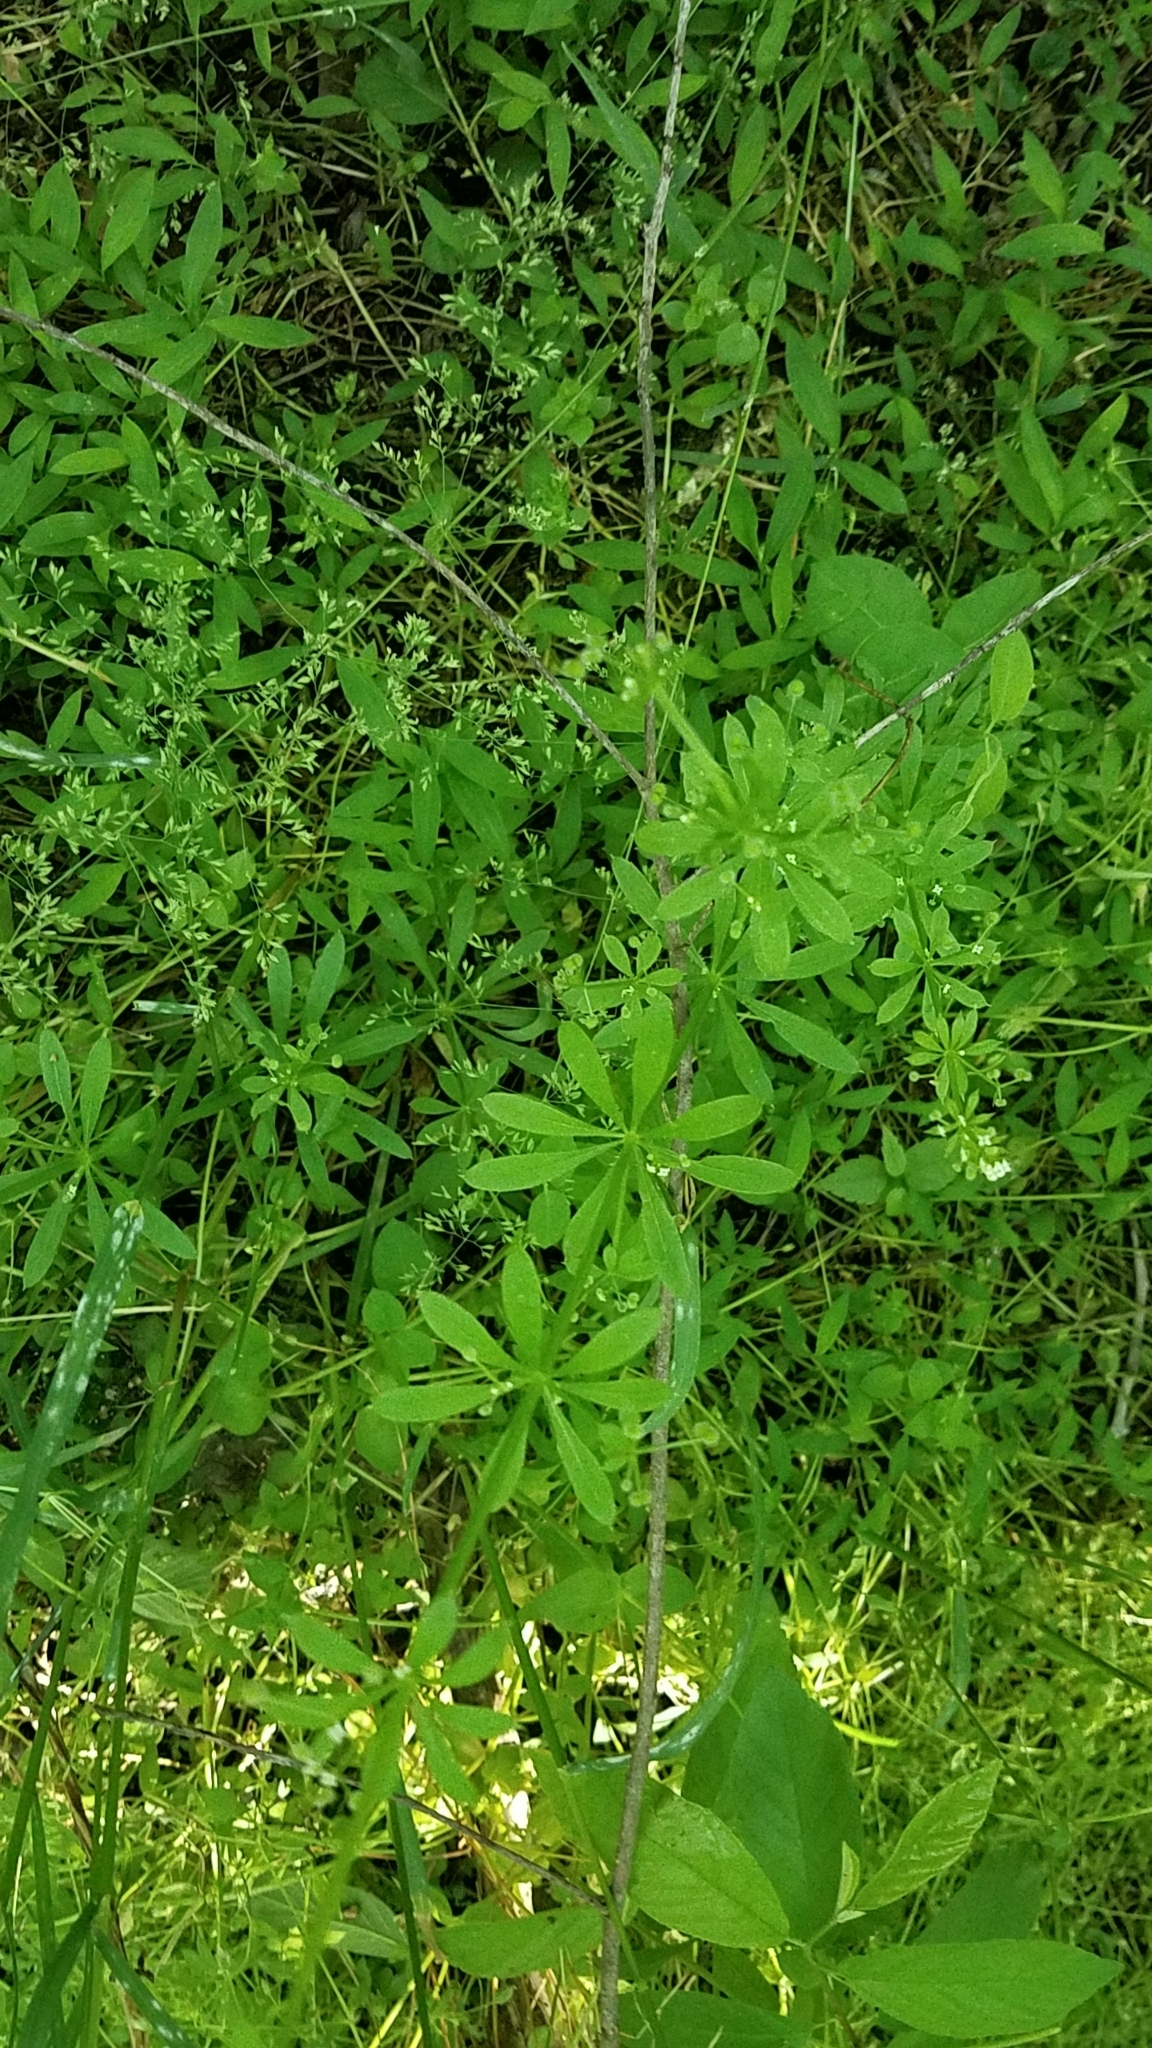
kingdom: Plantae
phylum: Tracheophyta
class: Magnoliopsida
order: Gentianales
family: Rubiaceae
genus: Galium
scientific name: Galium aparine
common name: Cleavers
